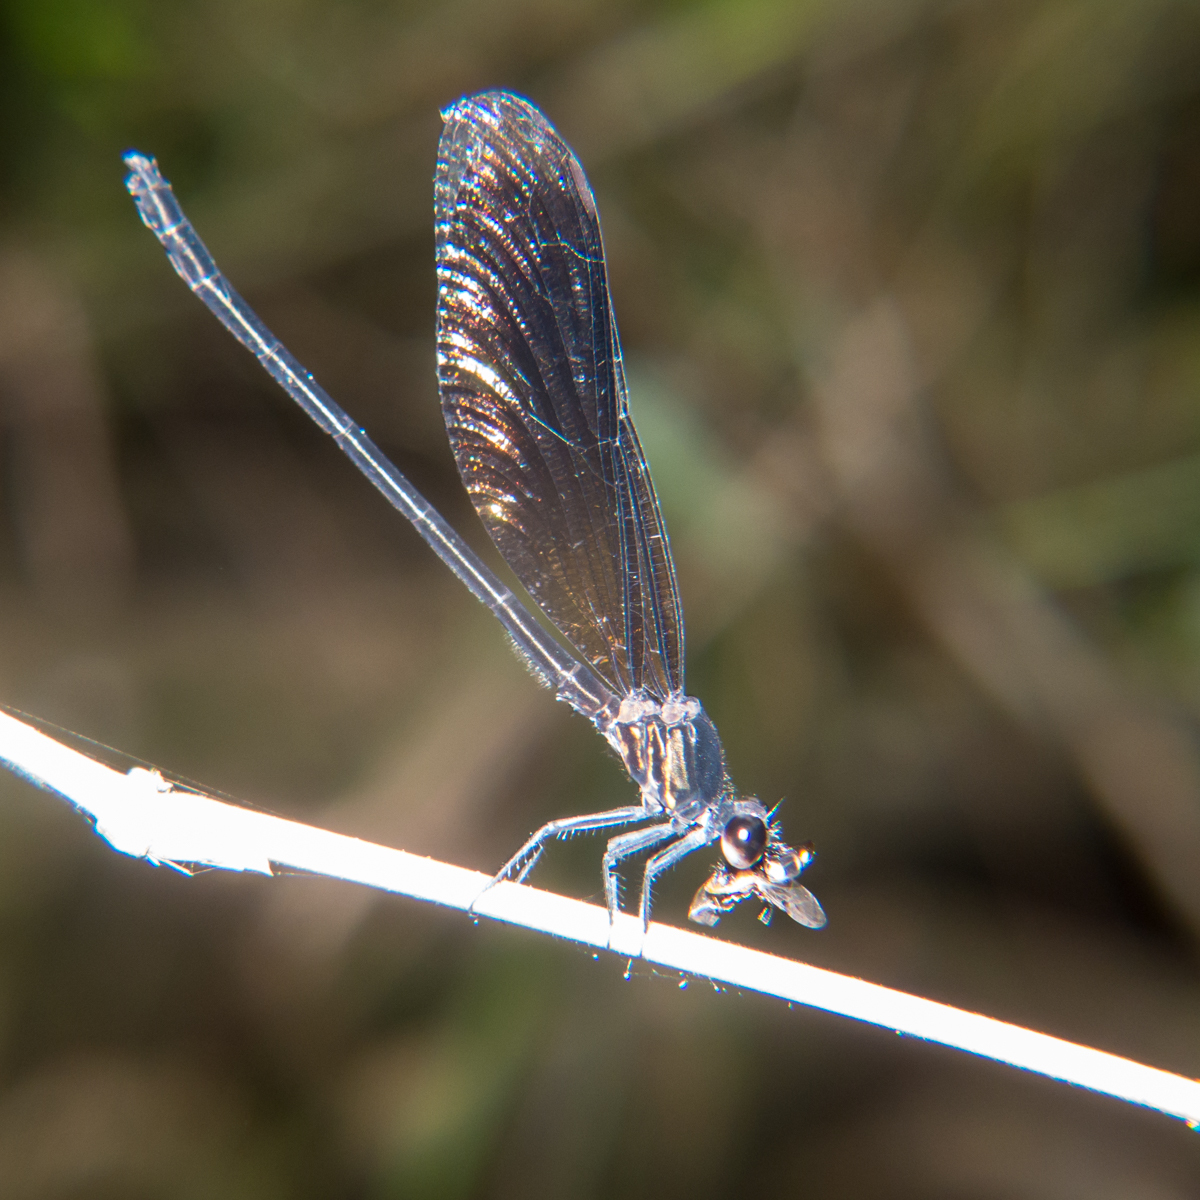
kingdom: Animalia
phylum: Arthropoda
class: Insecta
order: Odonata
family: Euphaeidae
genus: Euphaea
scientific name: Euphaea masoni
